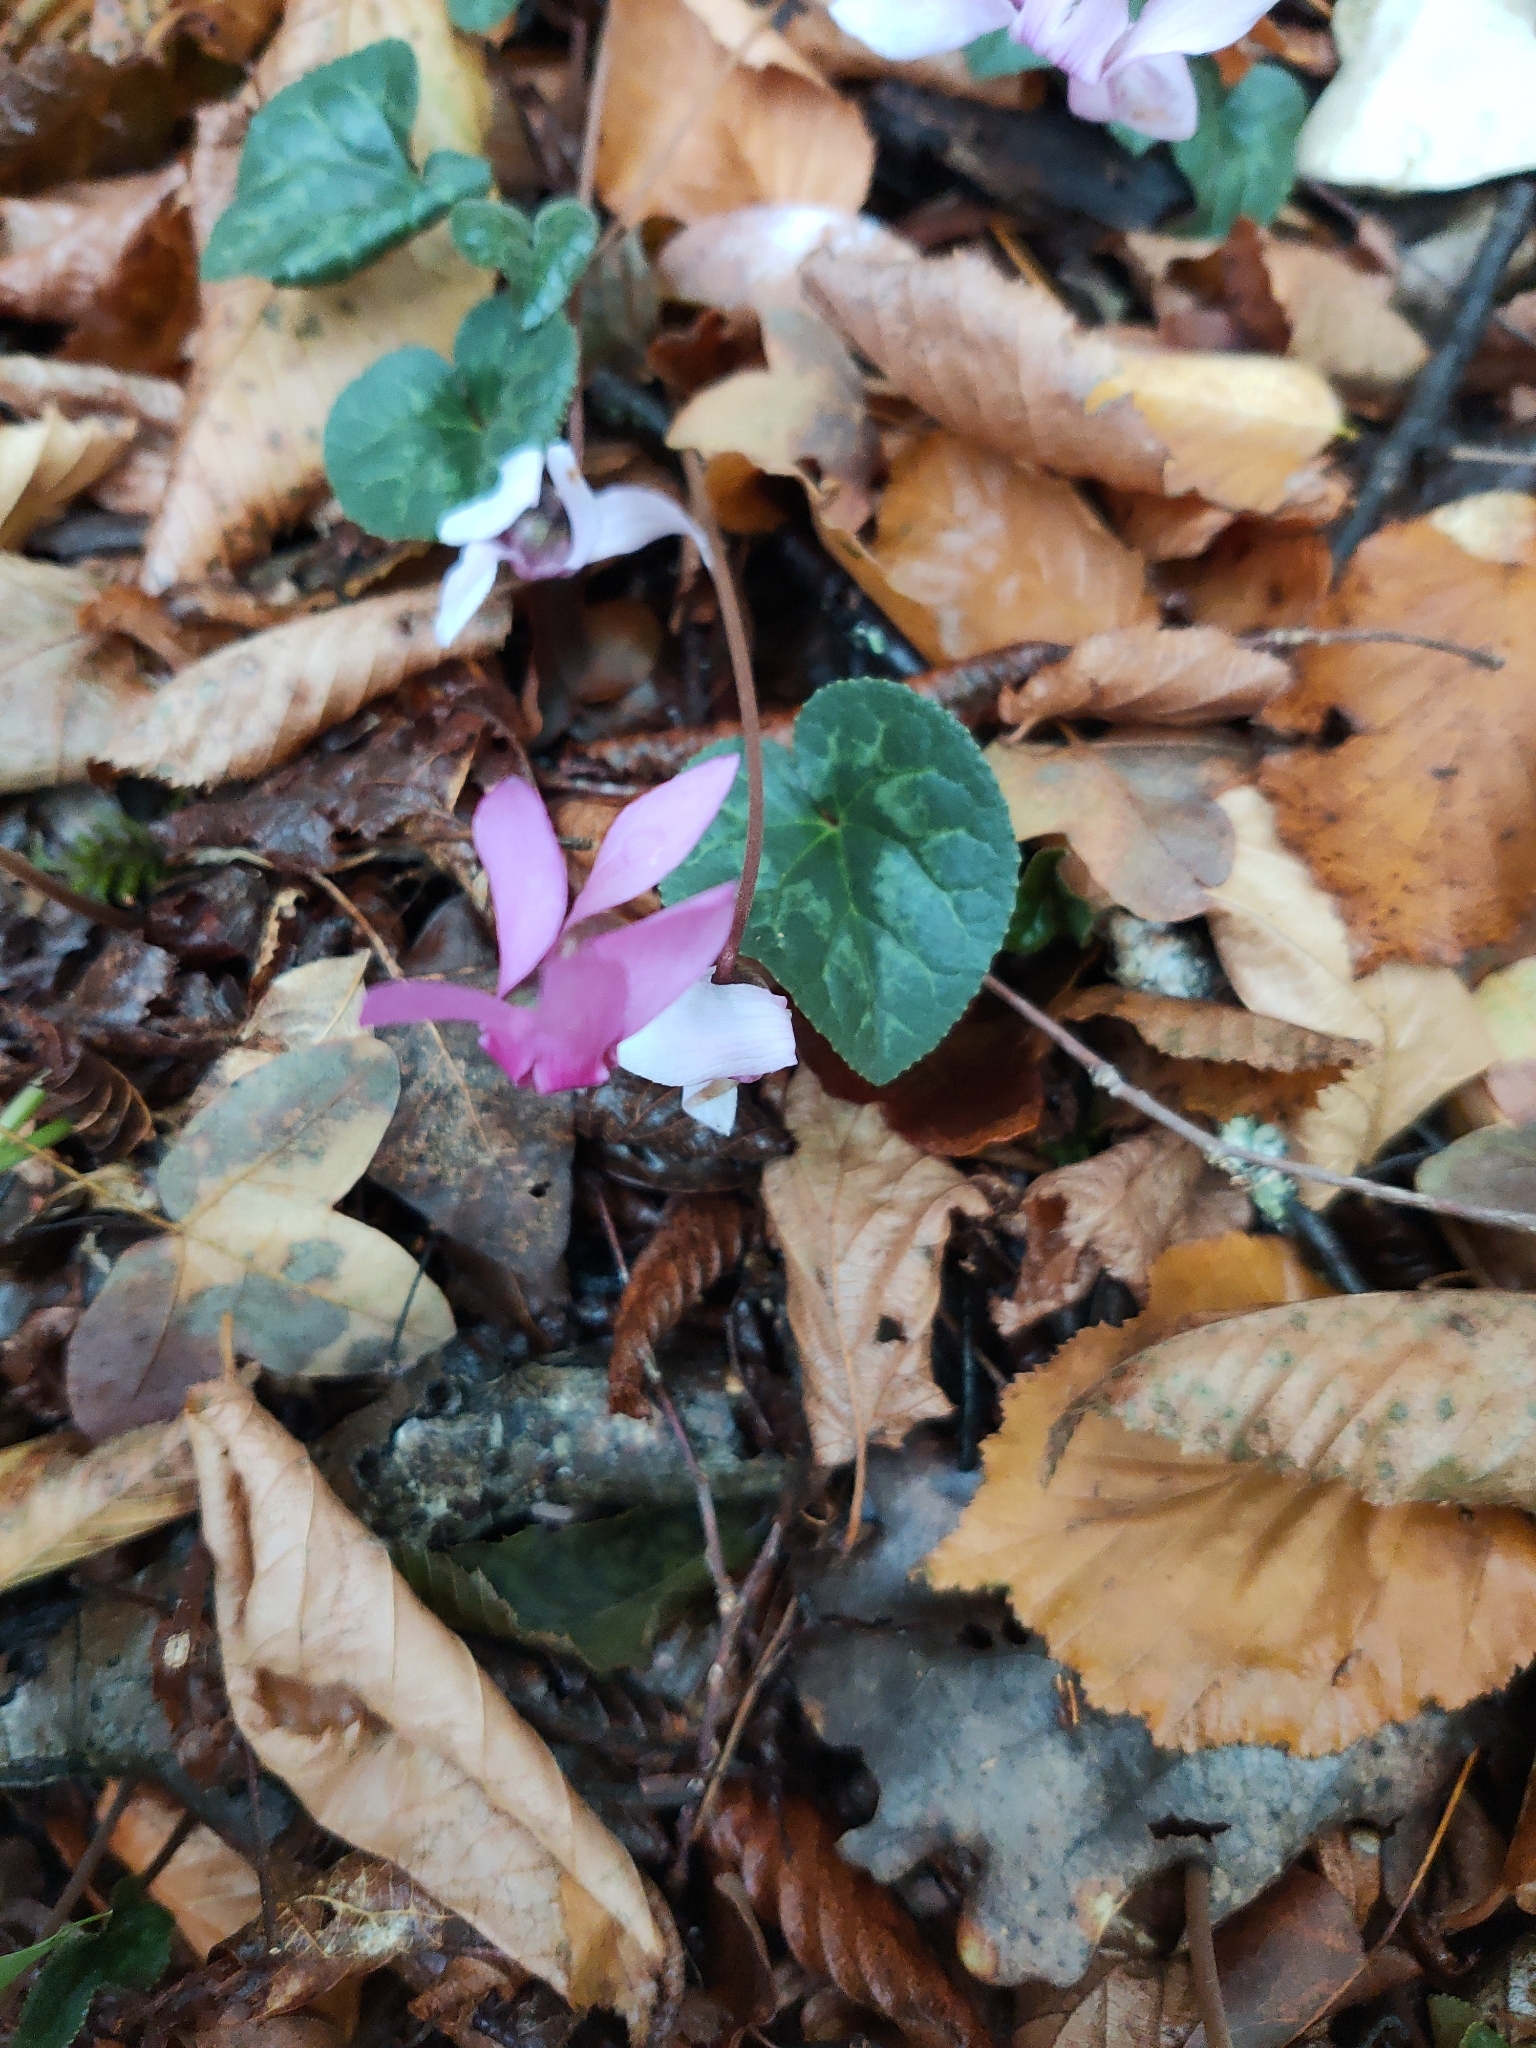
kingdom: Plantae
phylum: Tracheophyta
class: Magnoliopsida
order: Ericales
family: Primulaceae
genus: Cyclamen
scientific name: Cyclamen purpurascens
